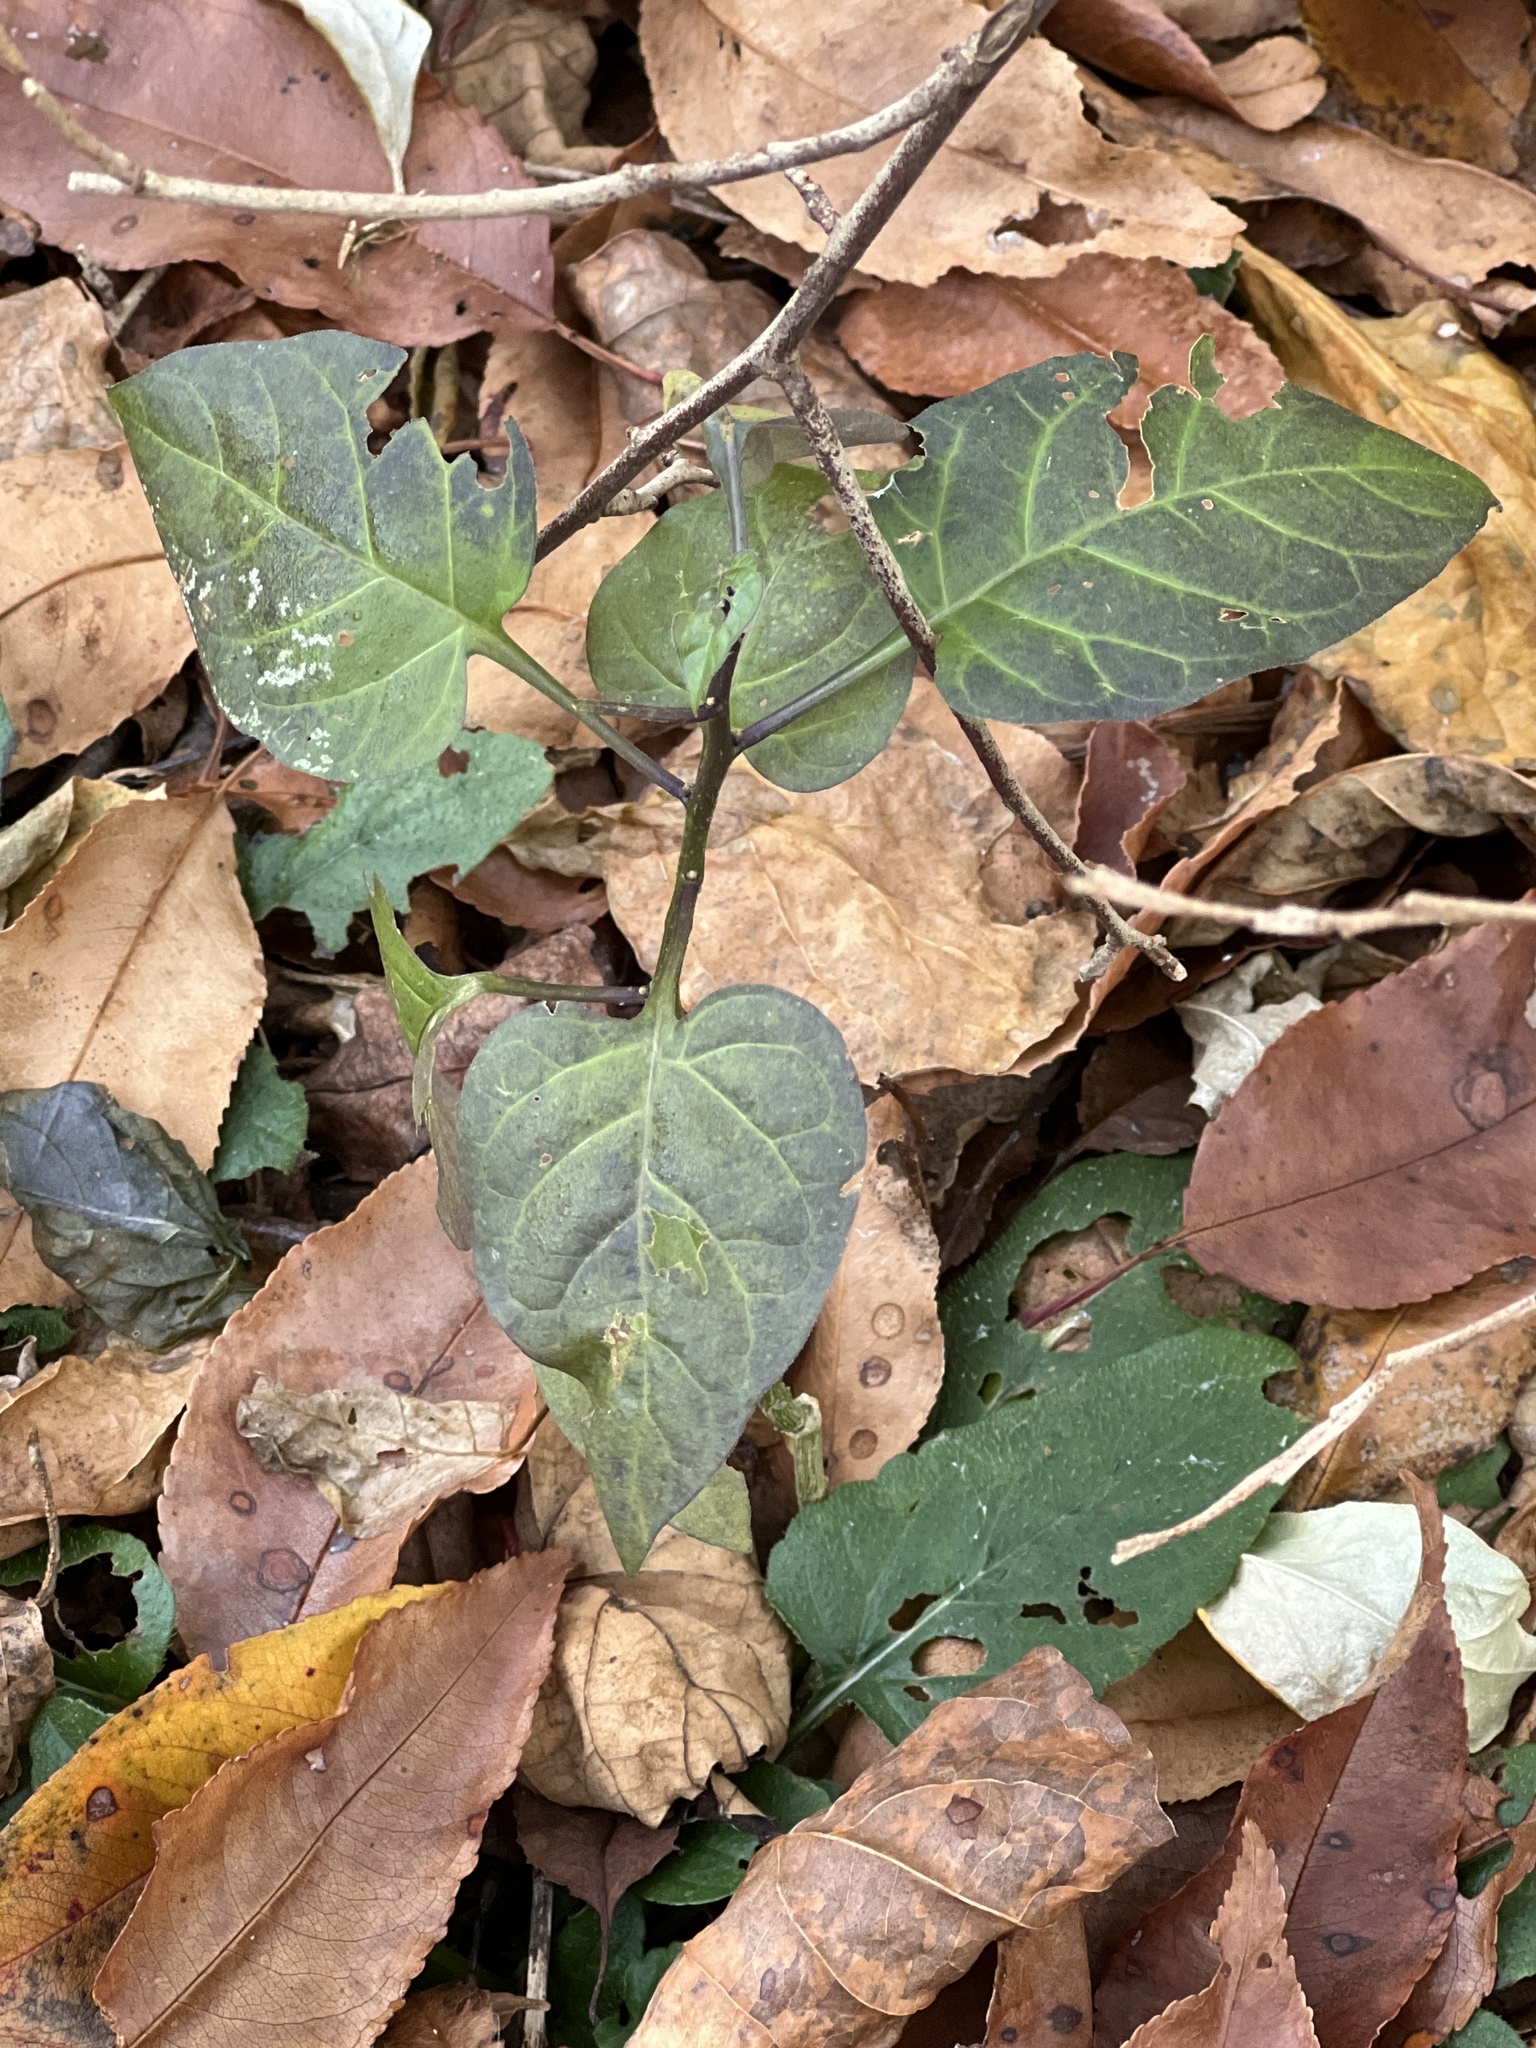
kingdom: Plantae
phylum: Tracheophyta
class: Magnoliopsida
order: Solanales
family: Solanaceae
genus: Solanum
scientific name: Solanum dulcamara
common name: Climbing nightshade
